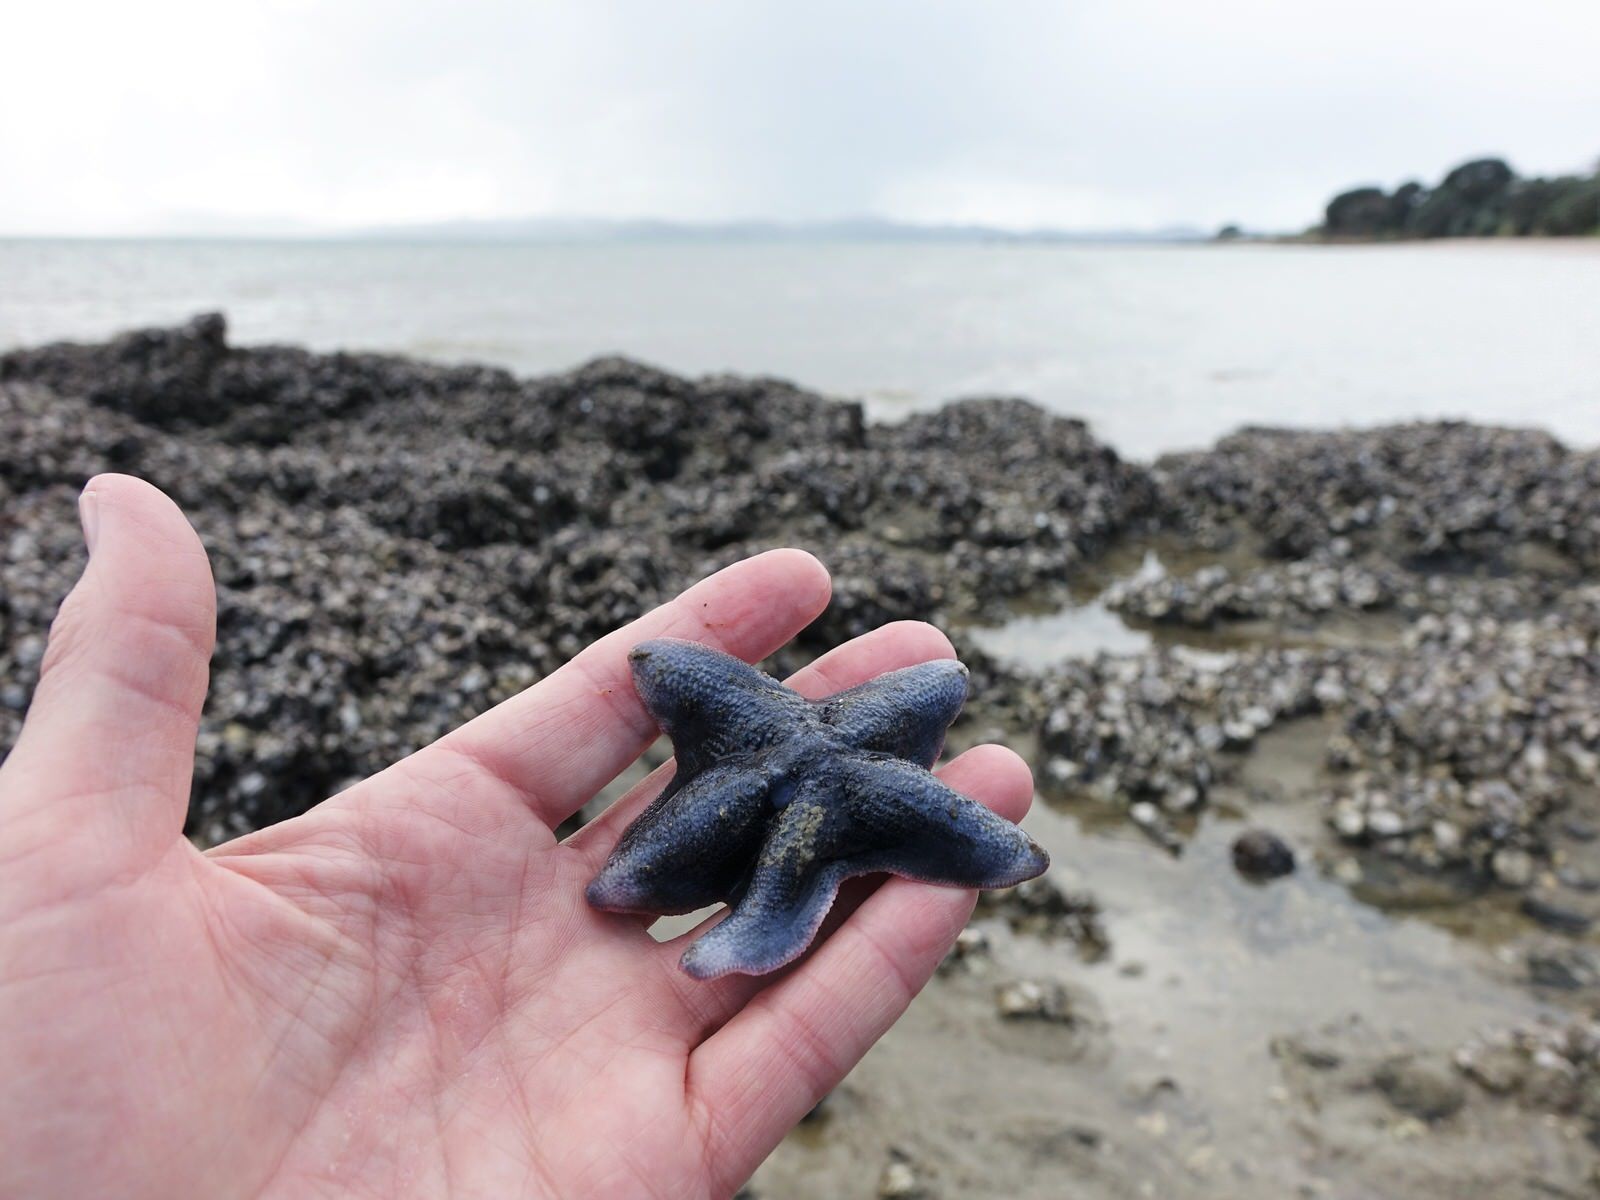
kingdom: Animalia
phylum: Echinodermata
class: Asteroidea
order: Valvatida
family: Asterinidae
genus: Patiriella
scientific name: Patiriella regularis
